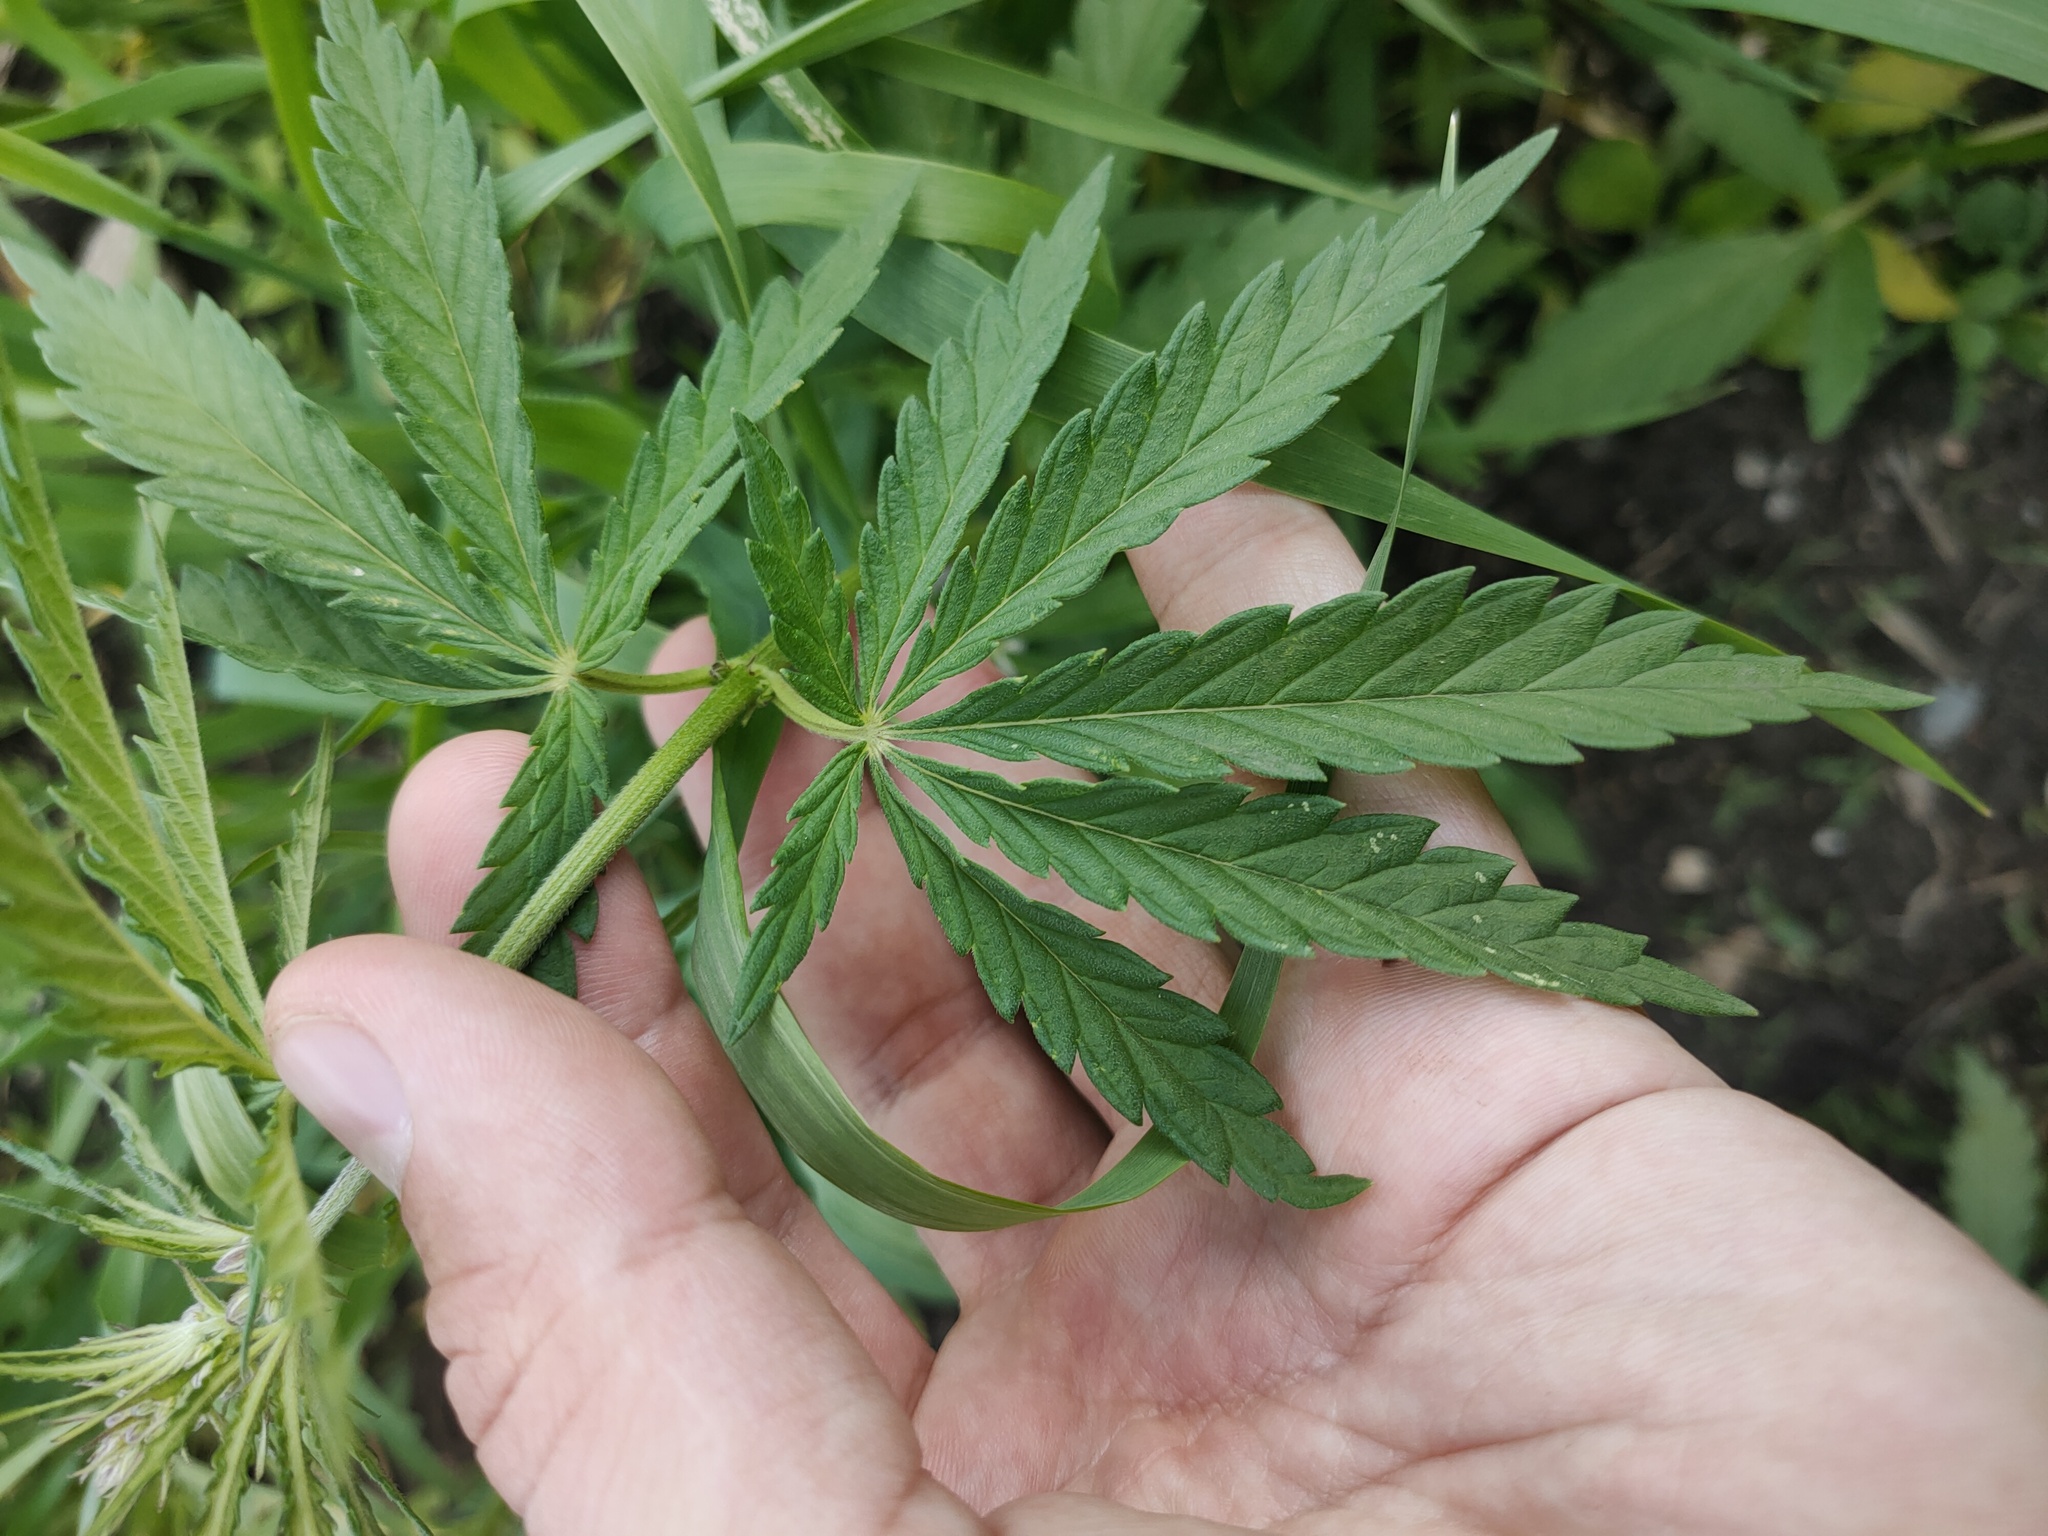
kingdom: Plantae
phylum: Tracheophyta
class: Magnoliopsida
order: Rosales
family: Cannabaceae
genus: Cannabis
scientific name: Cannabis sativa
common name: Hemp
